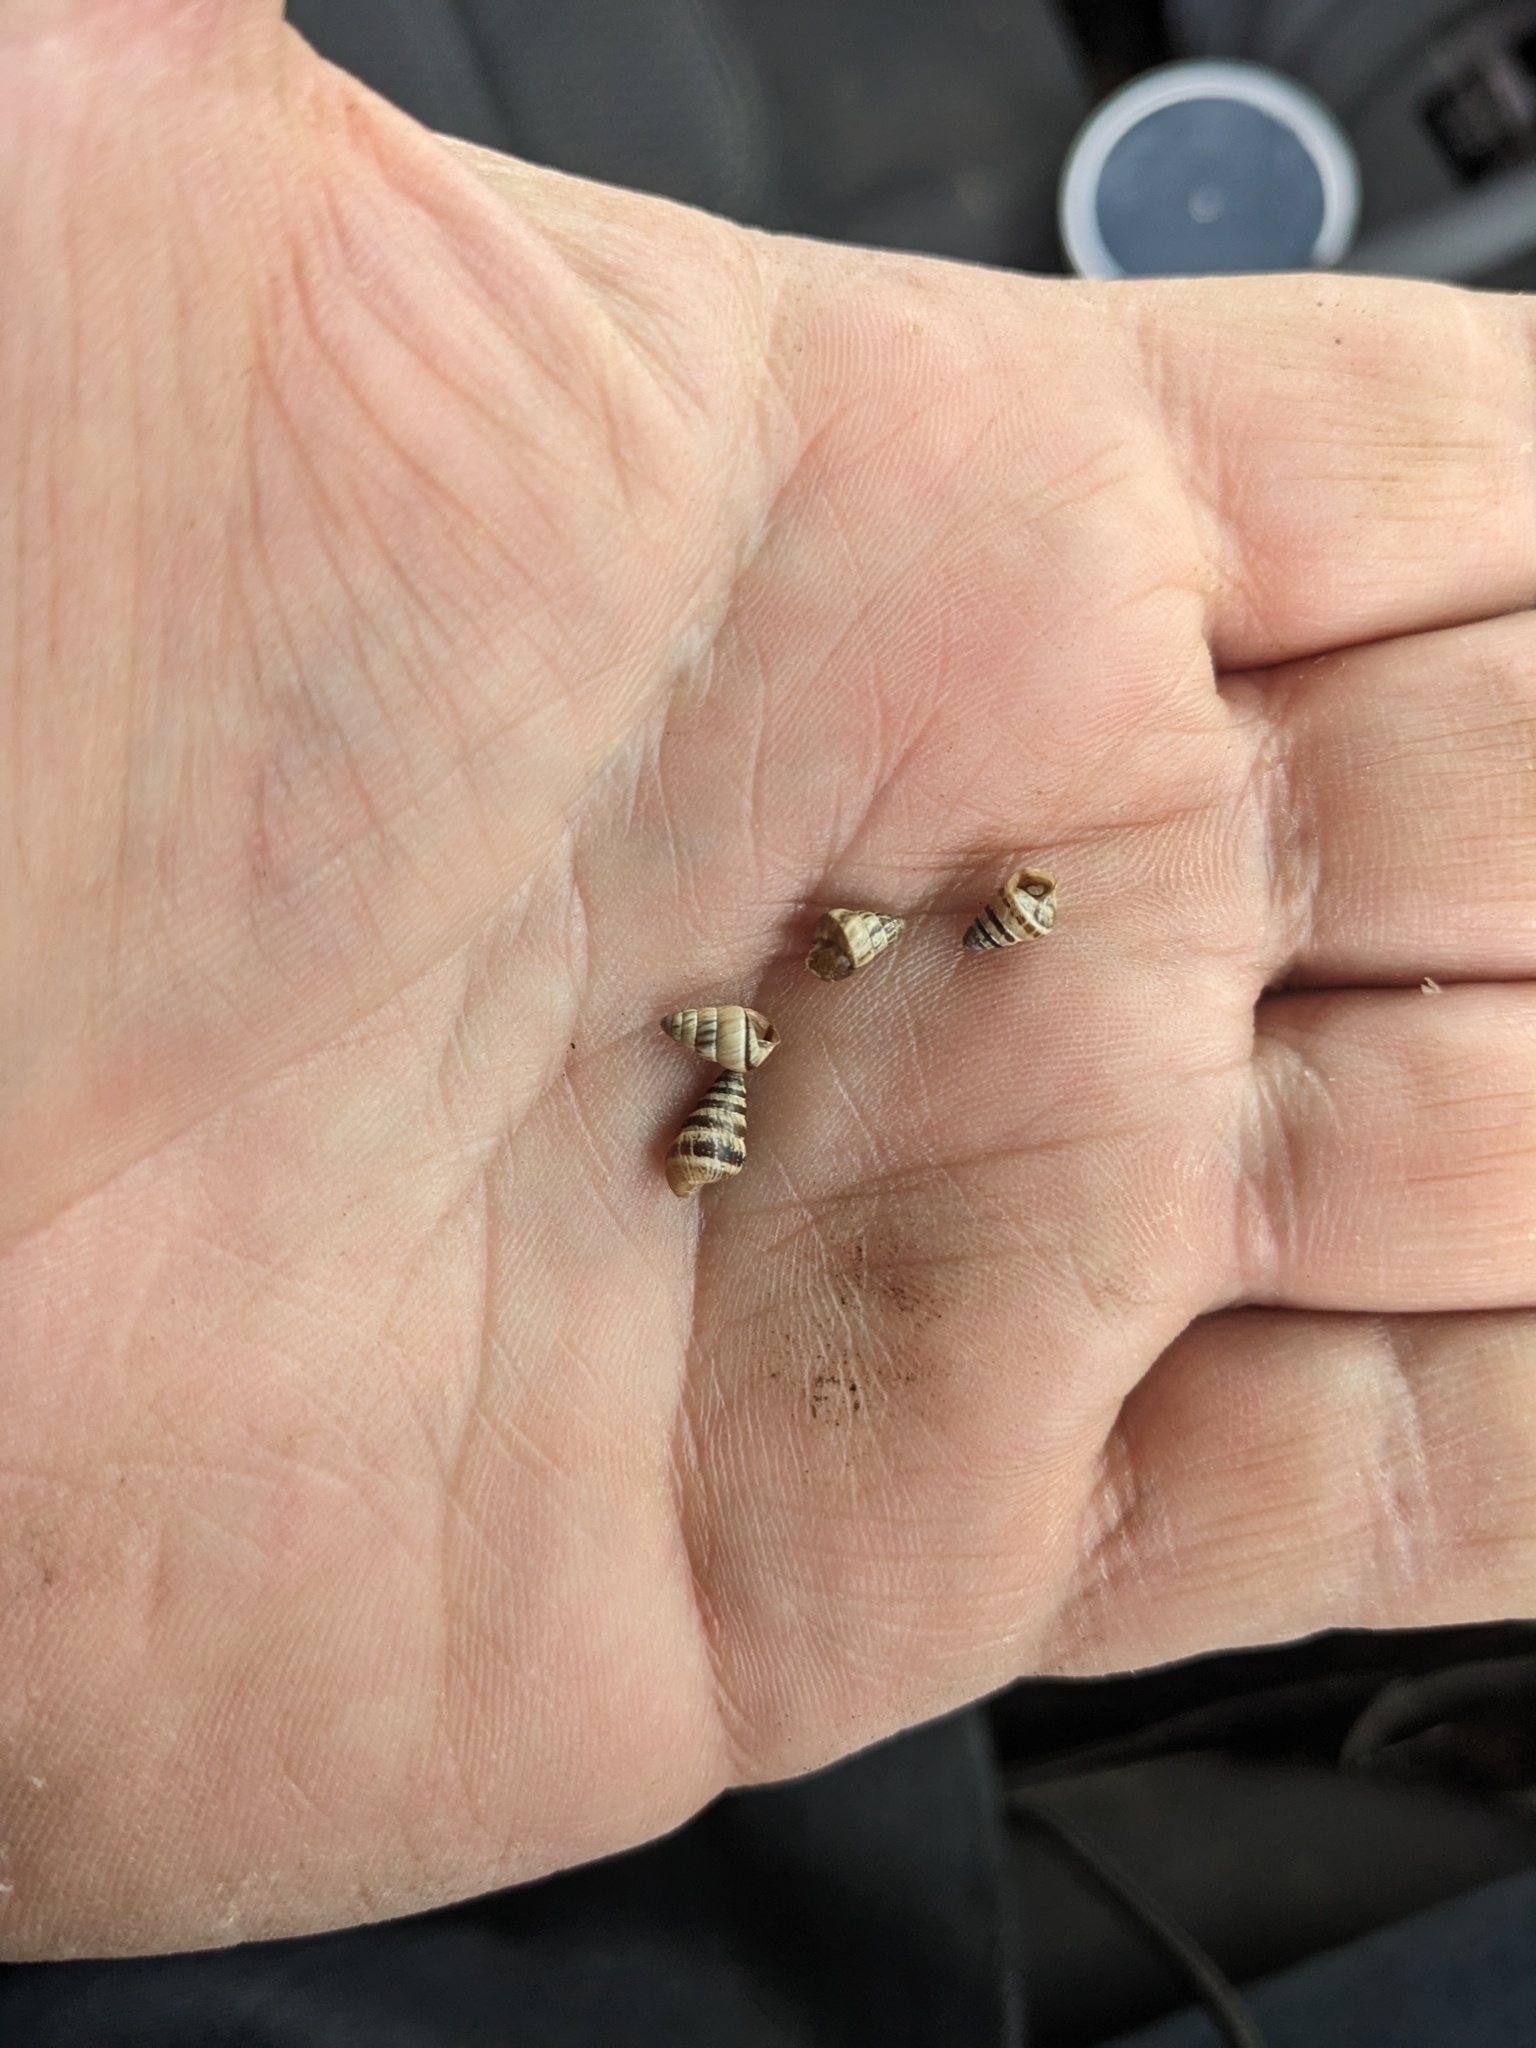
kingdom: Animalia
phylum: Mollusca
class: Gastropoda
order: Stylommatophora
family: Geomitridae
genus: Cochlicella
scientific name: Cochlicella barbara
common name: Potbellied helicellid
